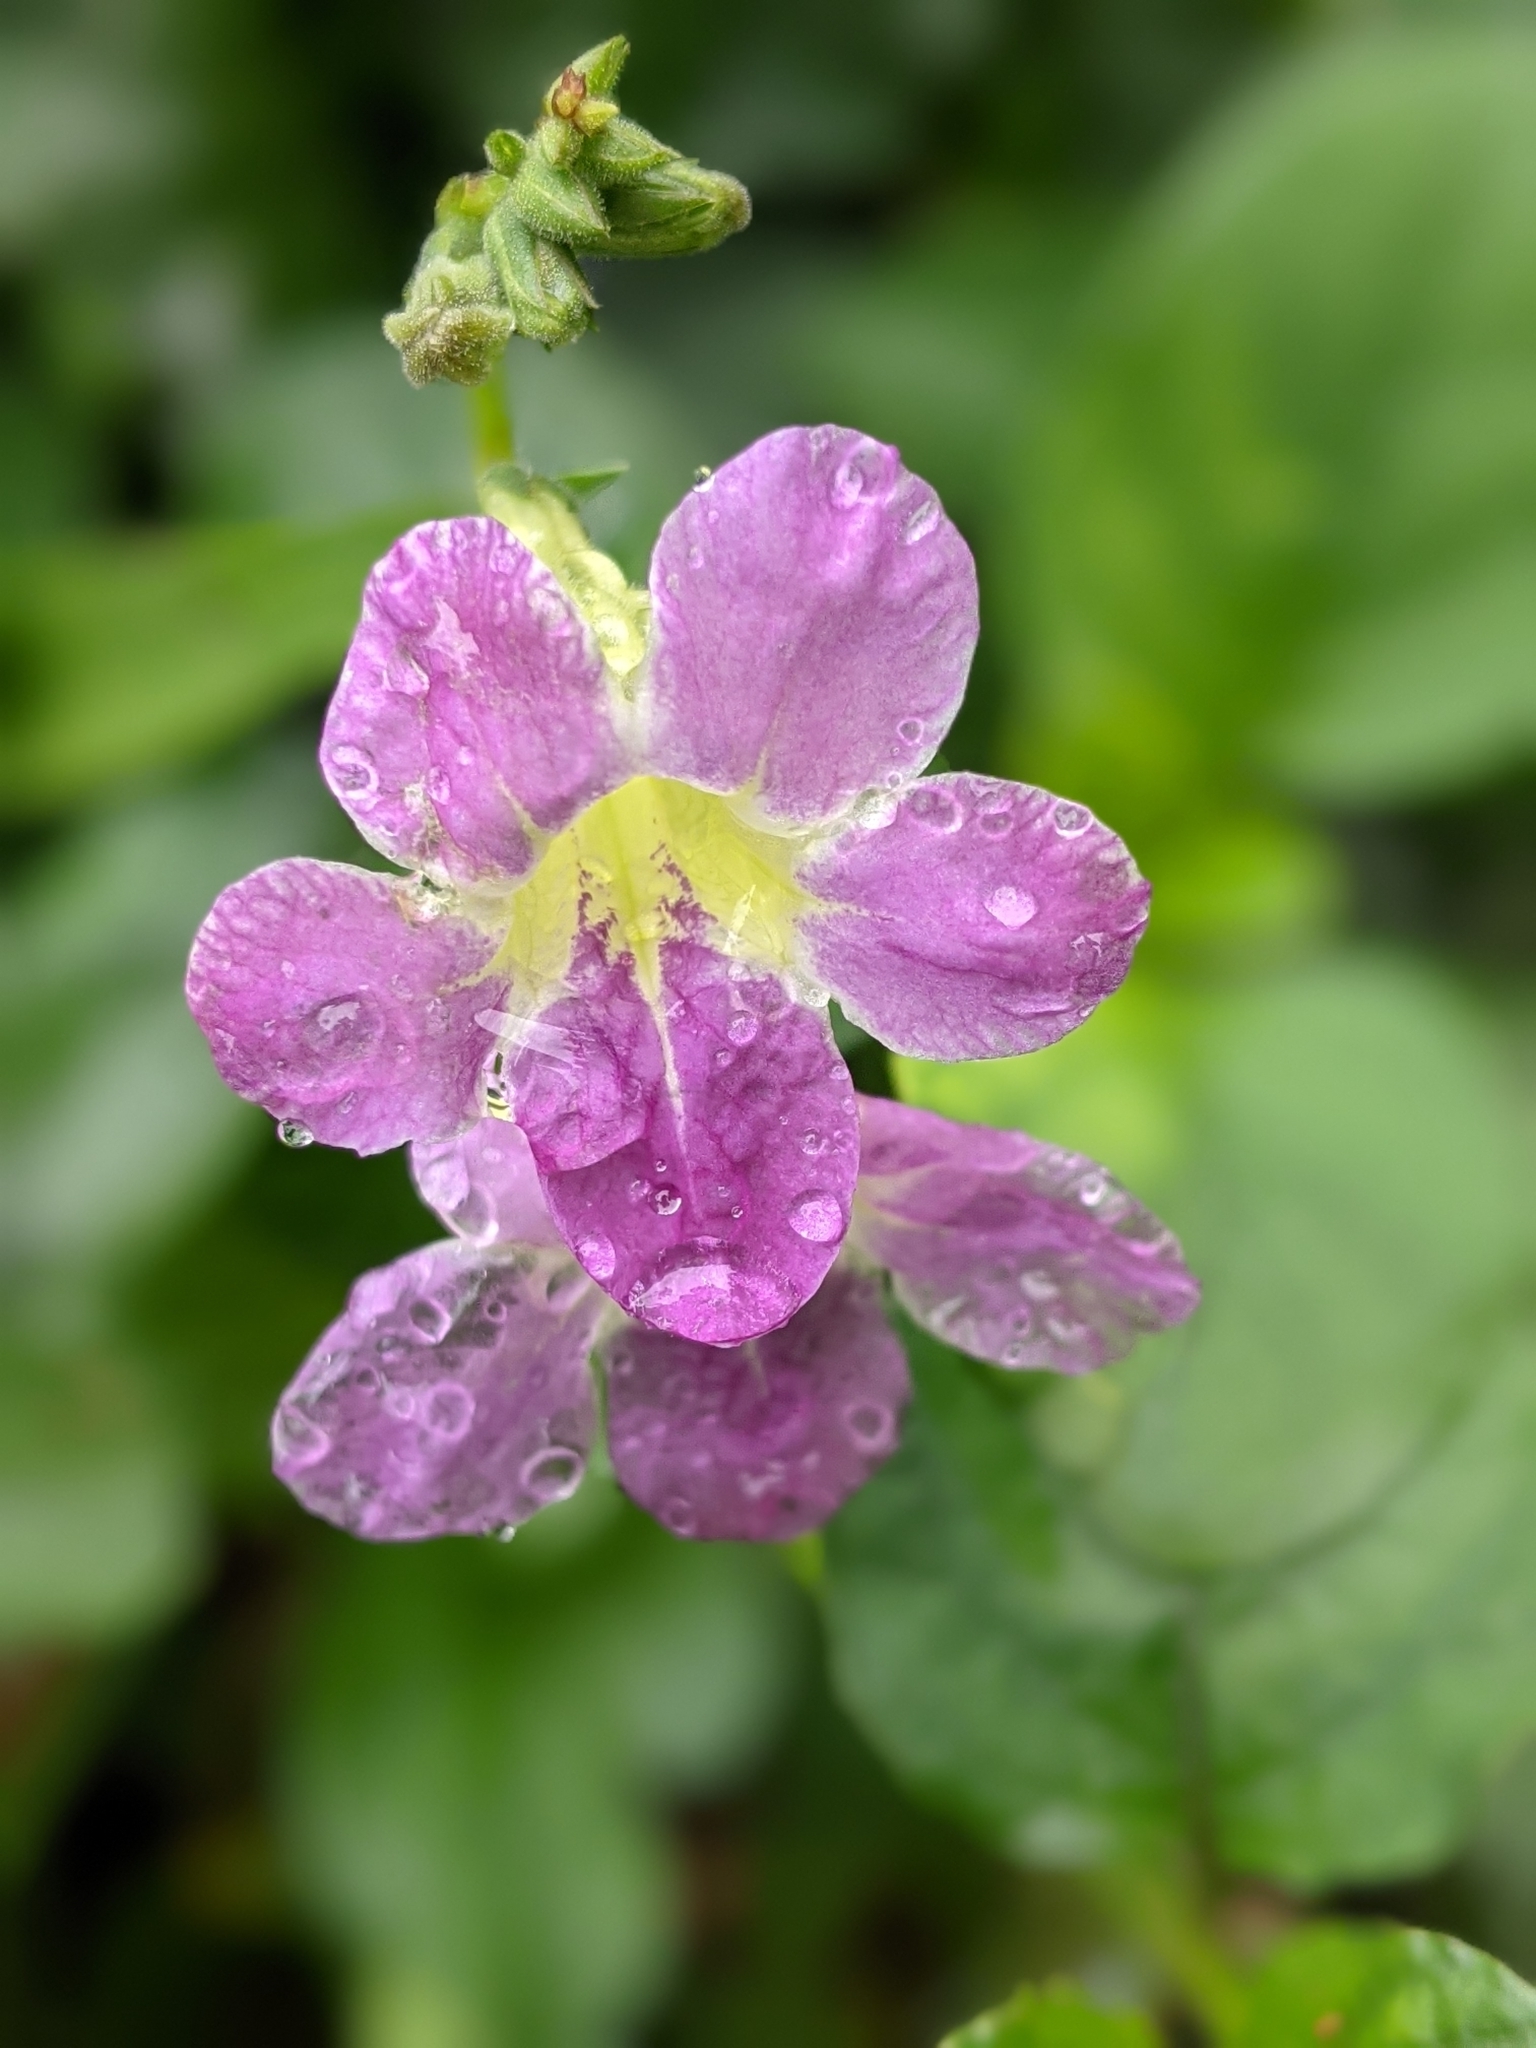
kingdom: Plantae
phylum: Tracheophyta
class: Magnoliopsida
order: Lamiales
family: Acanthaceae
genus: Asystasia
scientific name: Asystasia gangetica
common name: Chinese violet
